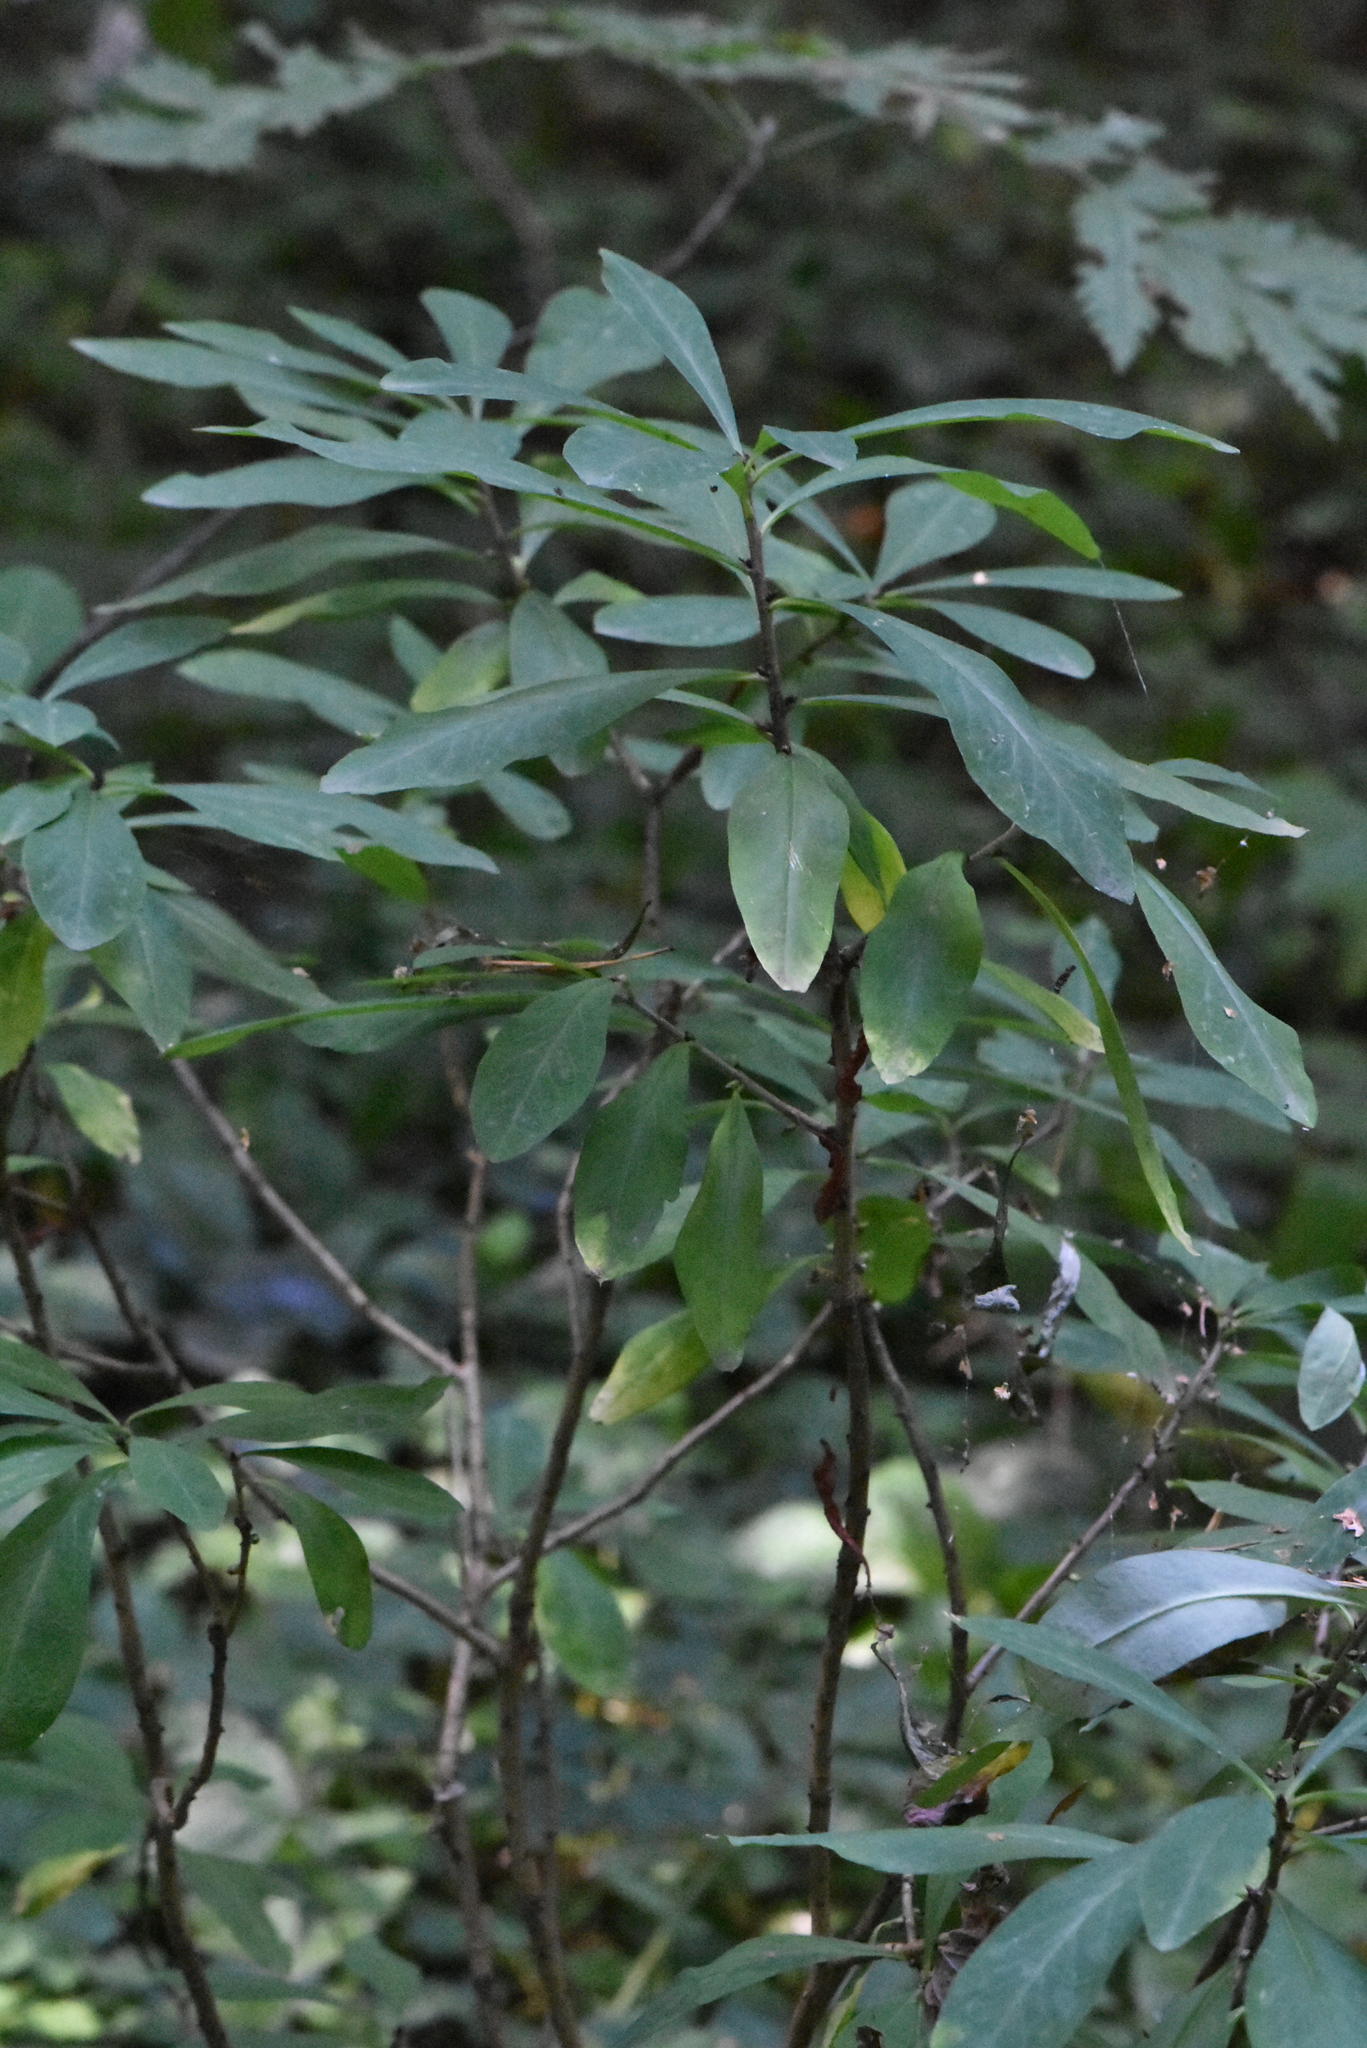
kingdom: Plantae
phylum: Tracheophyta
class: Magnoliopsida
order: Malvales
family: Thymelaeaceae
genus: Daphne
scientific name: Daphne mezereum
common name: Mezereon
